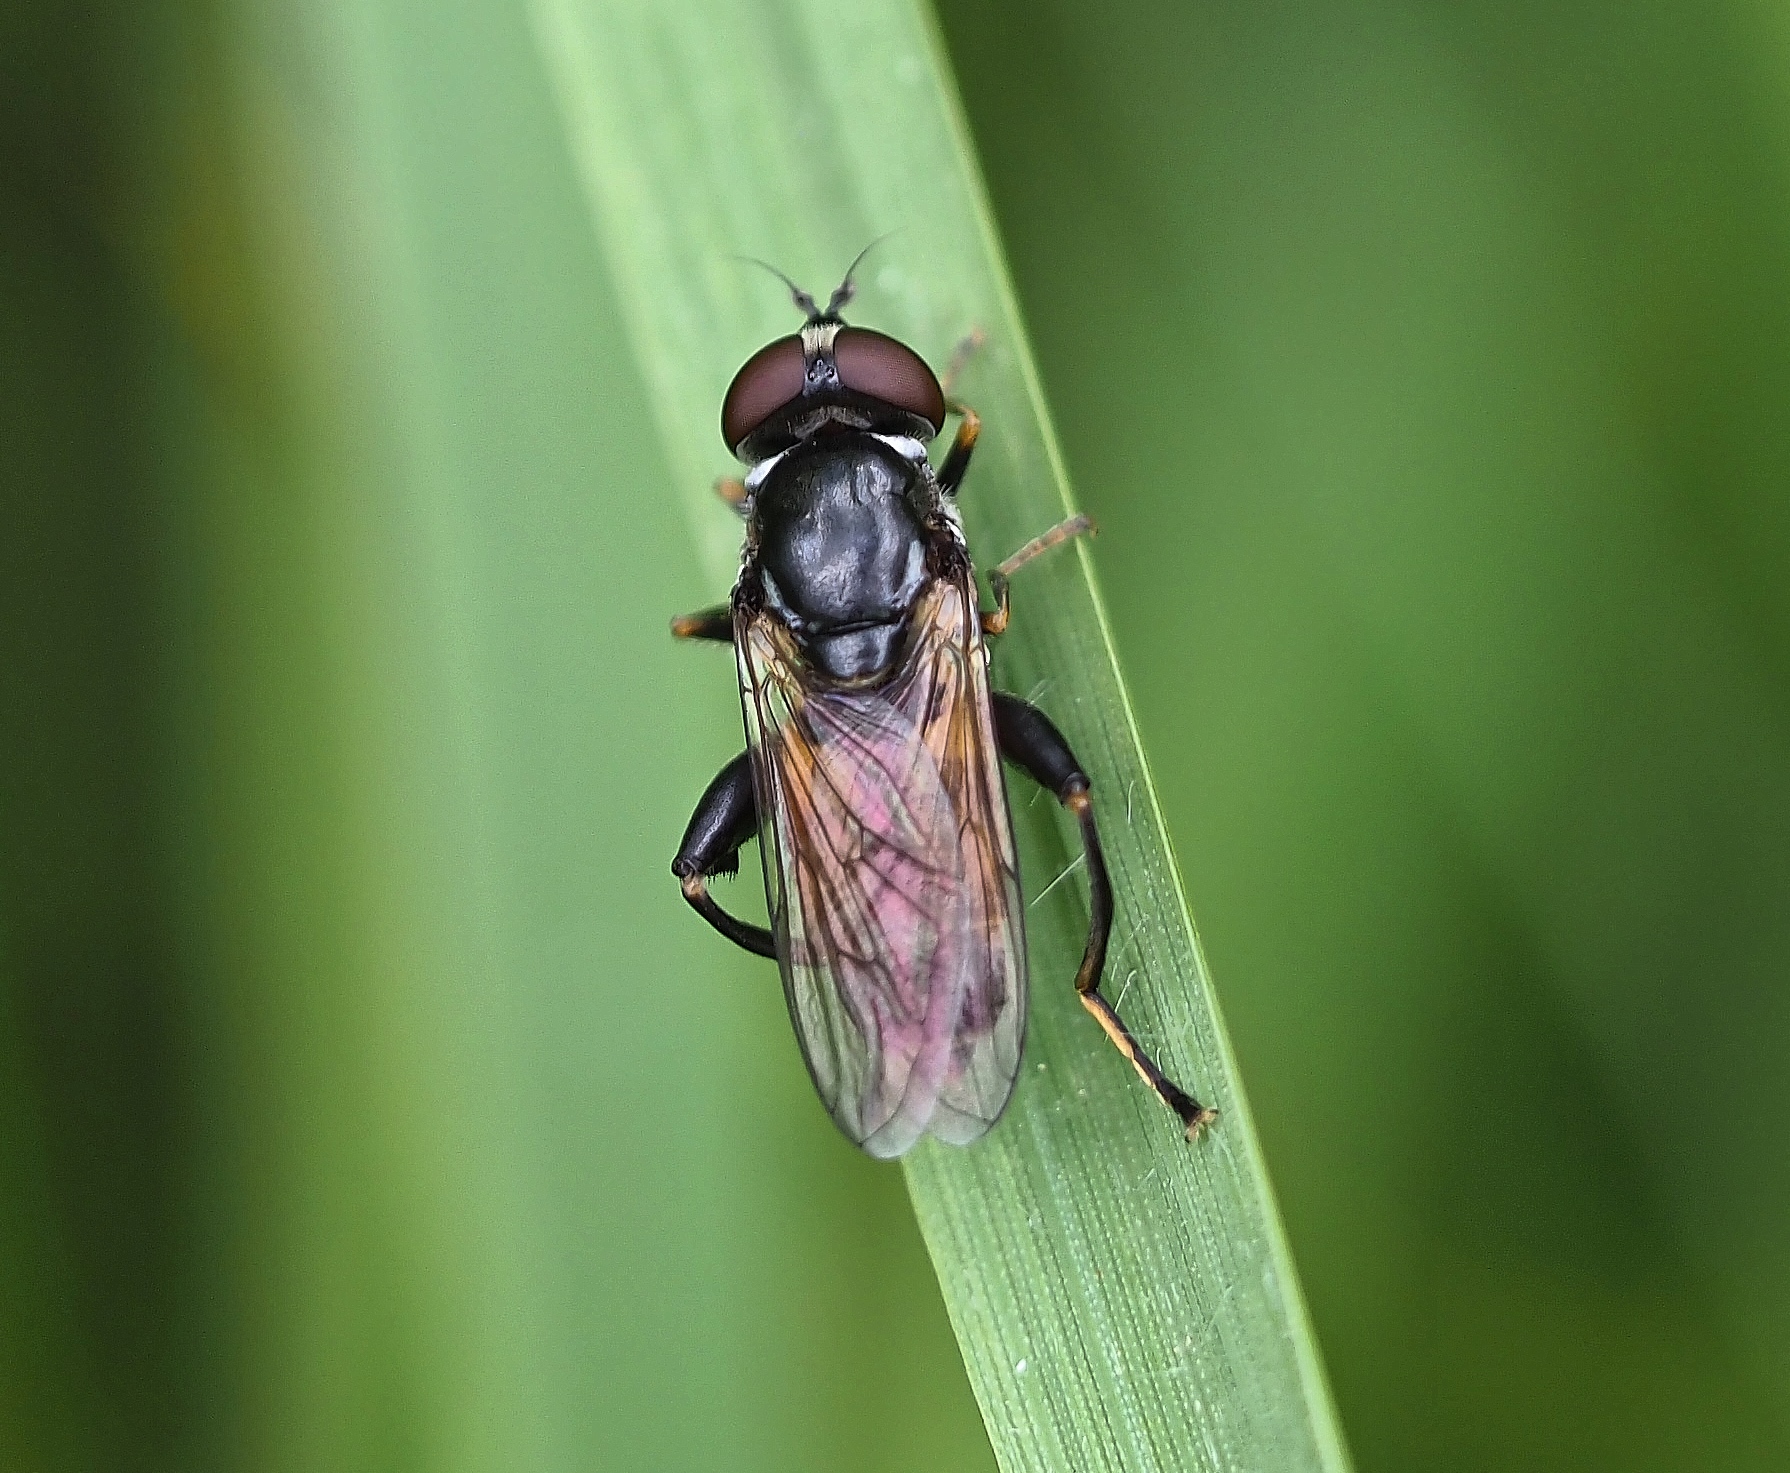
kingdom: Animalia
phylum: Arthropoda
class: Insecta
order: Diptera
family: Syrphidae
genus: Tropidia
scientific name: Tropidia scita
